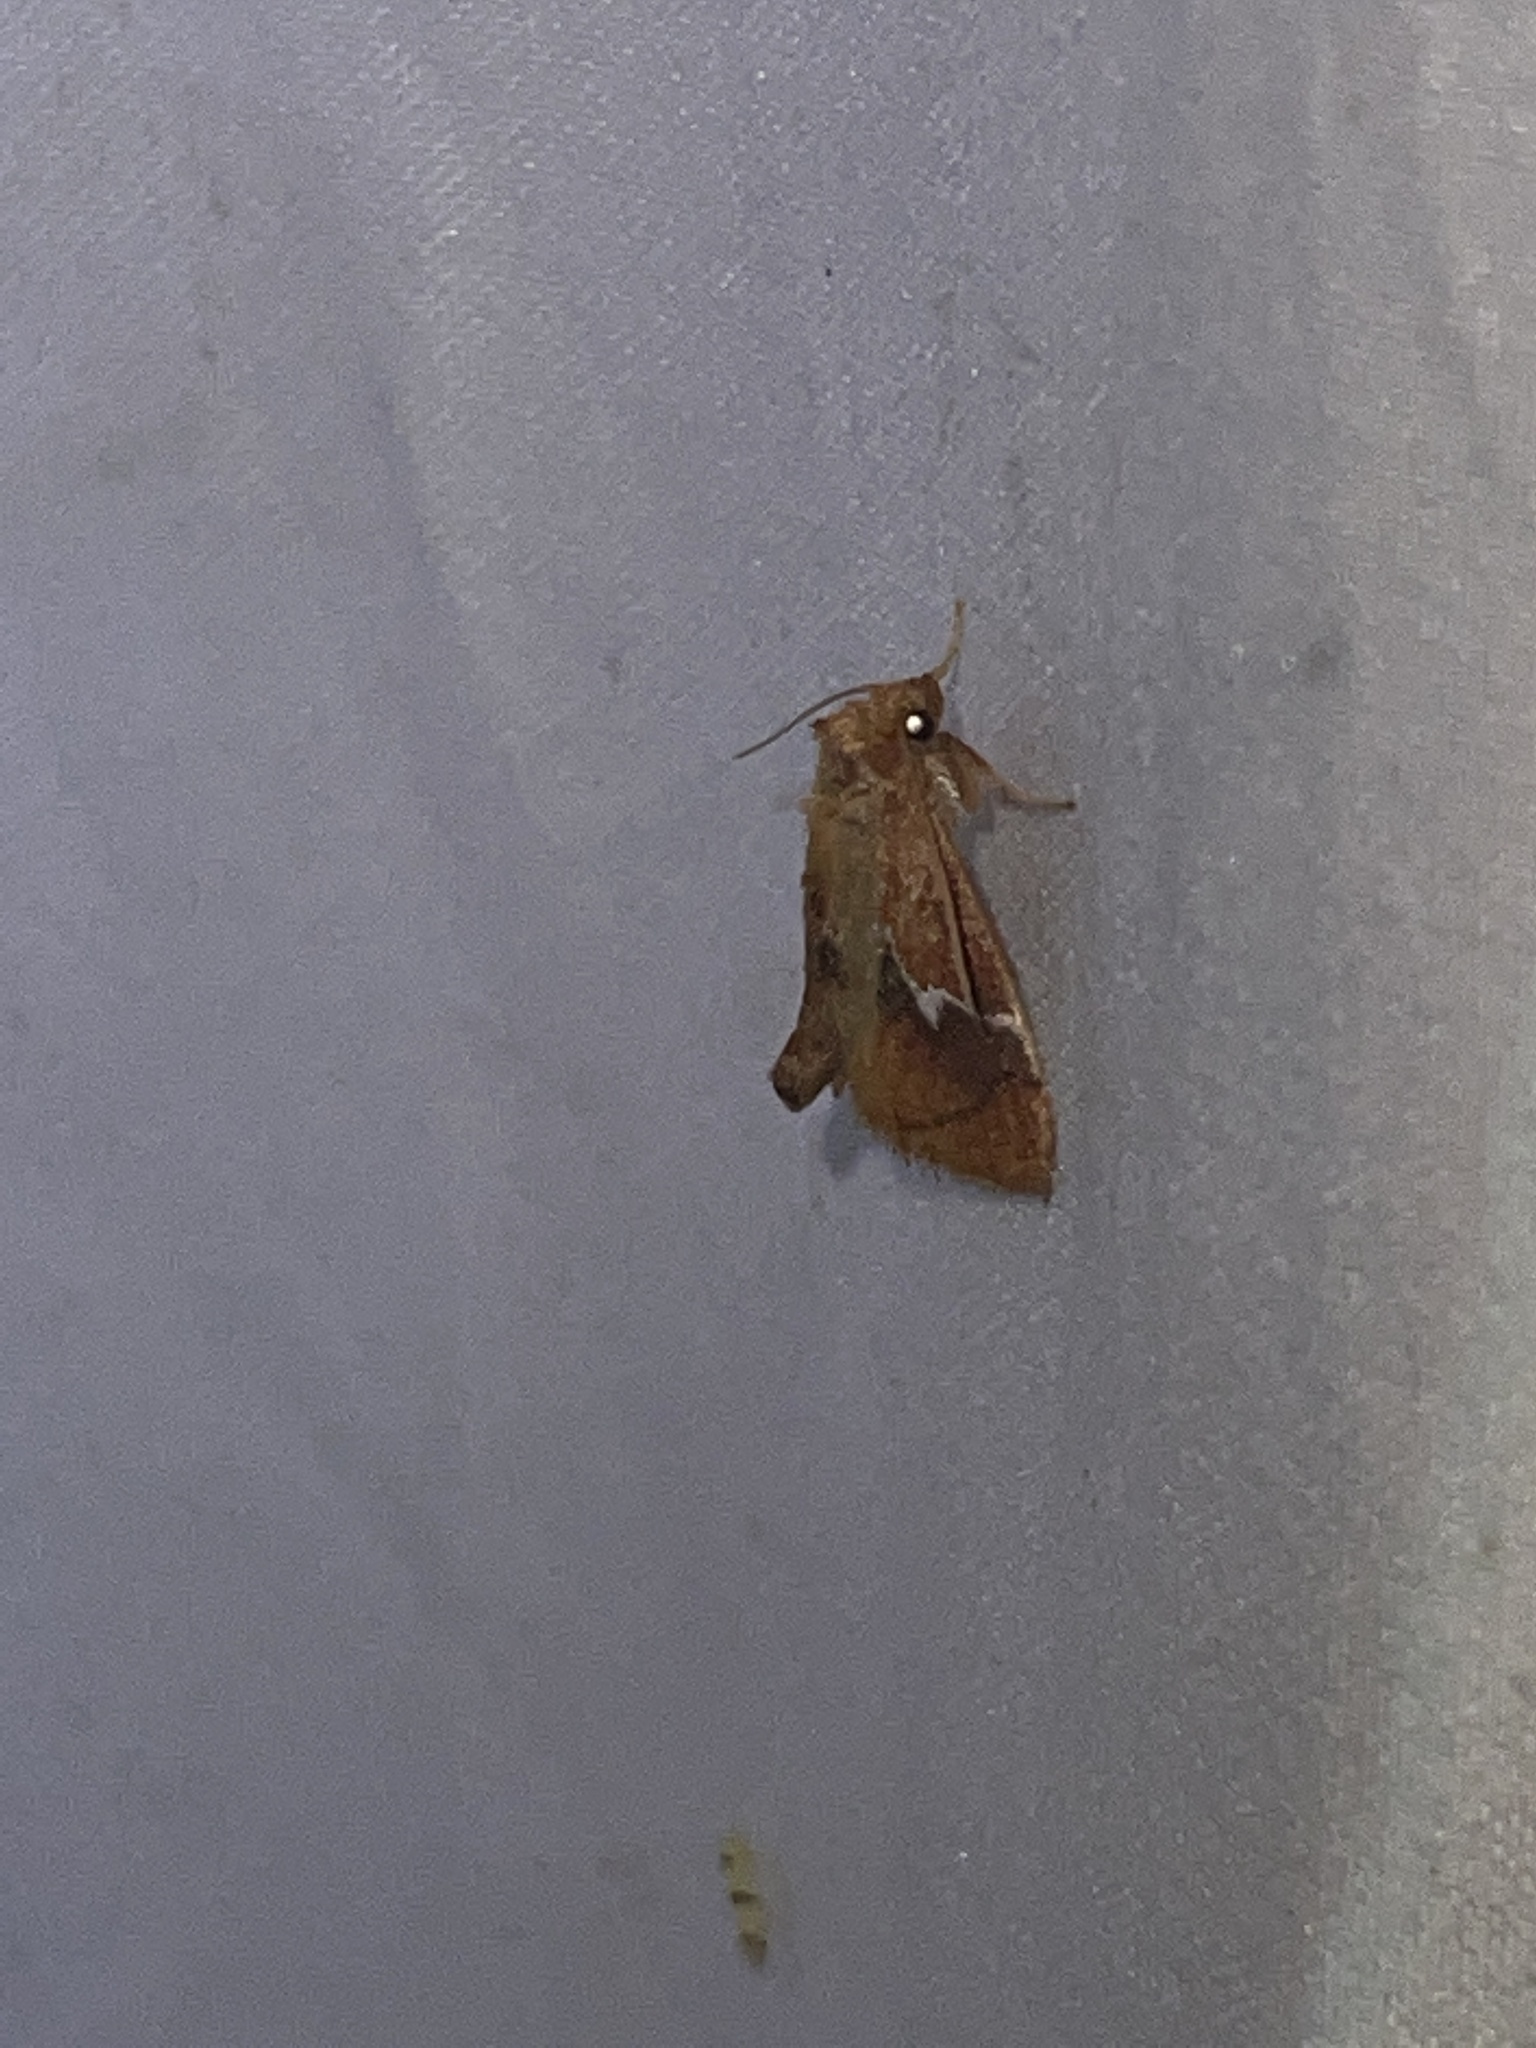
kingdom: Animalia
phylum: Arthropoda
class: Insecta
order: Lepidoptera
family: Limacodidae
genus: Lithacodes
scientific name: Lithacodes fasciola
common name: Yellow-shouldered slug moth
